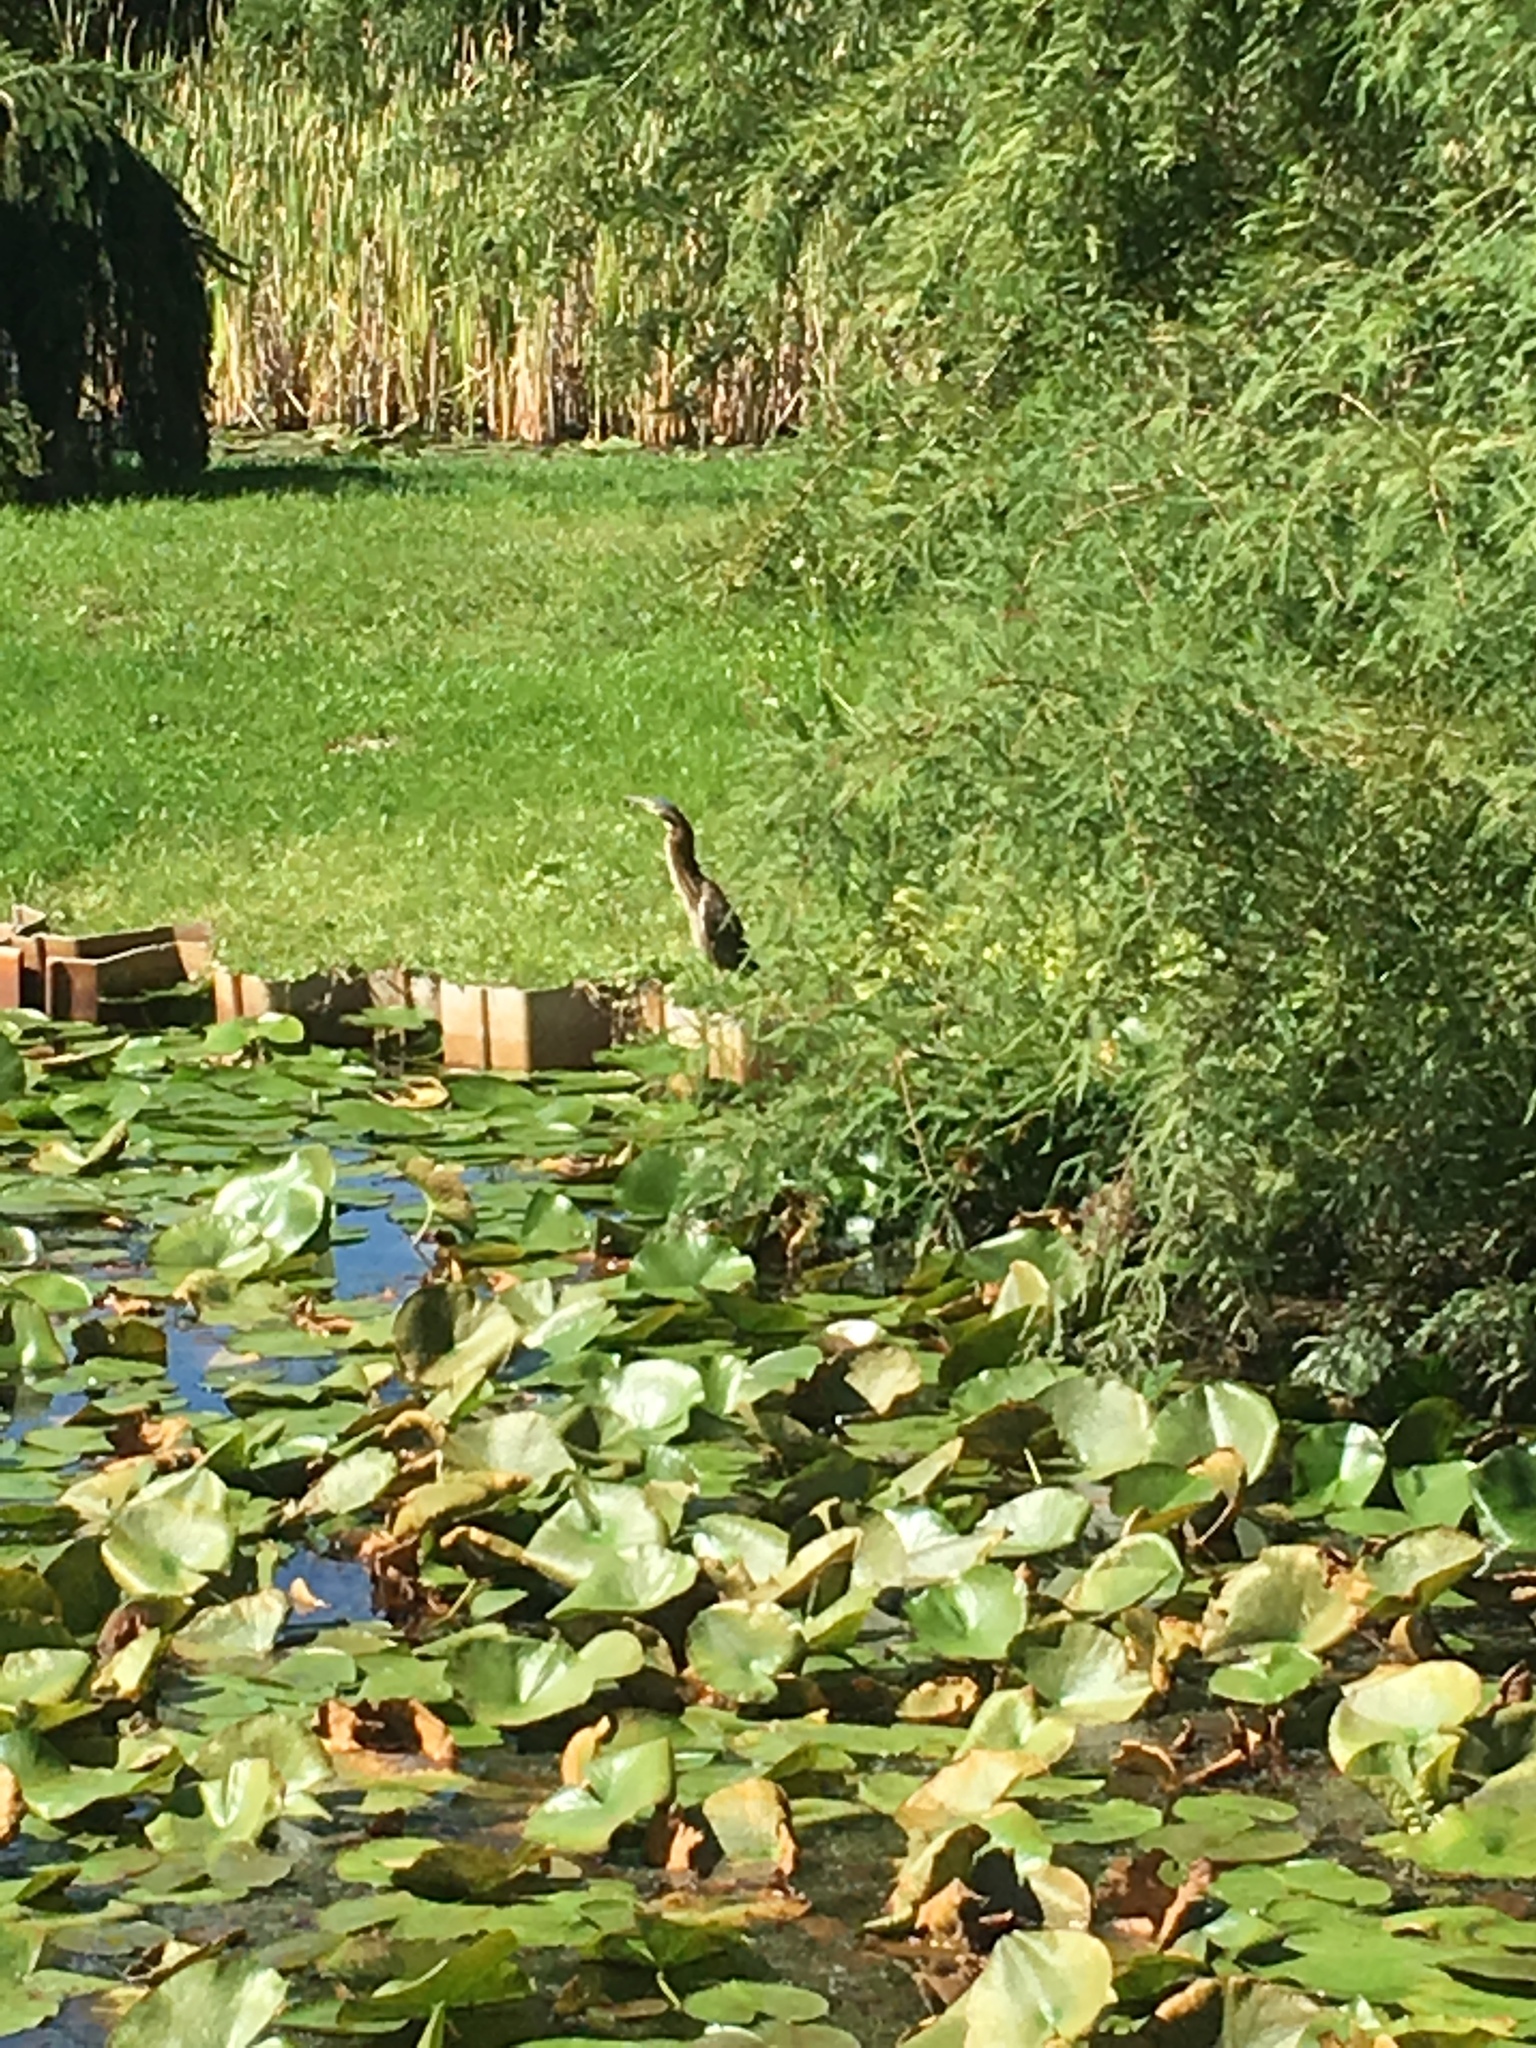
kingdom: Animalia
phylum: Chordata
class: Aves
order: Pelecaniformes
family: Ardeidae
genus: Butorides
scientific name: Butorides virescens
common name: Green heron
